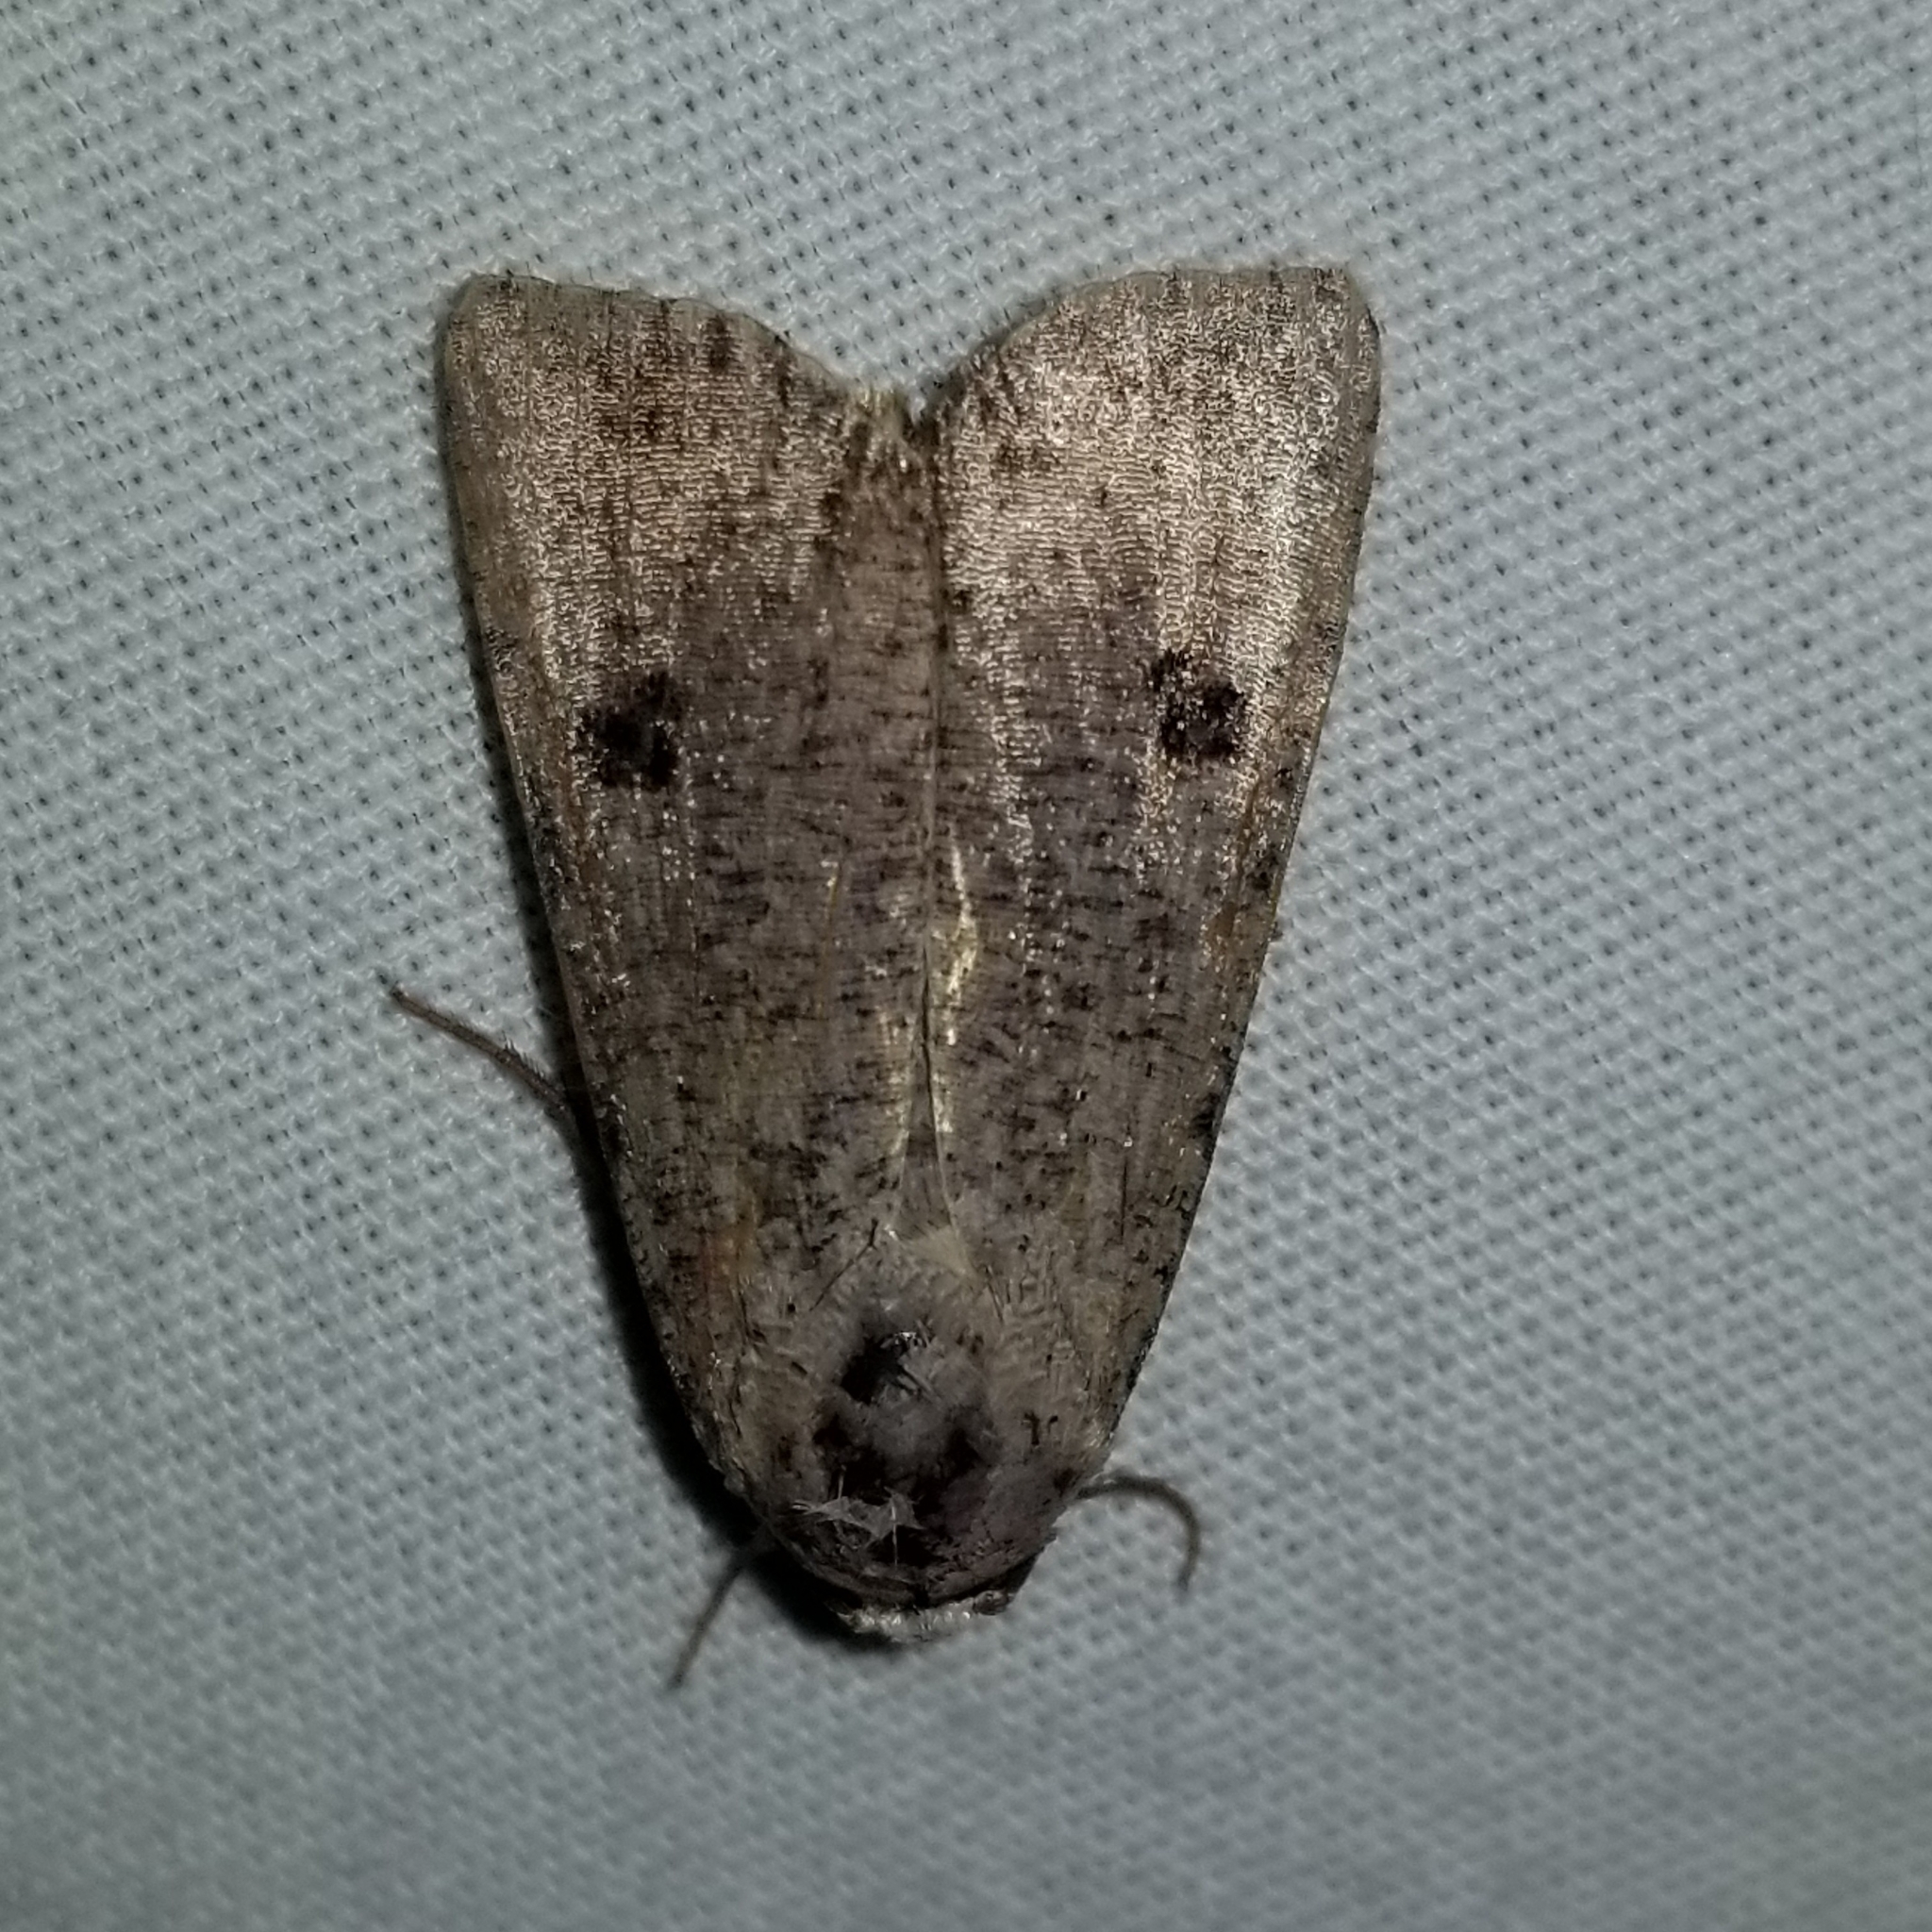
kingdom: Animalia
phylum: Arthropoda
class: Insecta
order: Lepidoptera
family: Noctuidae
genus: Anicla
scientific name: Anicla infecta
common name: Green cutworm
